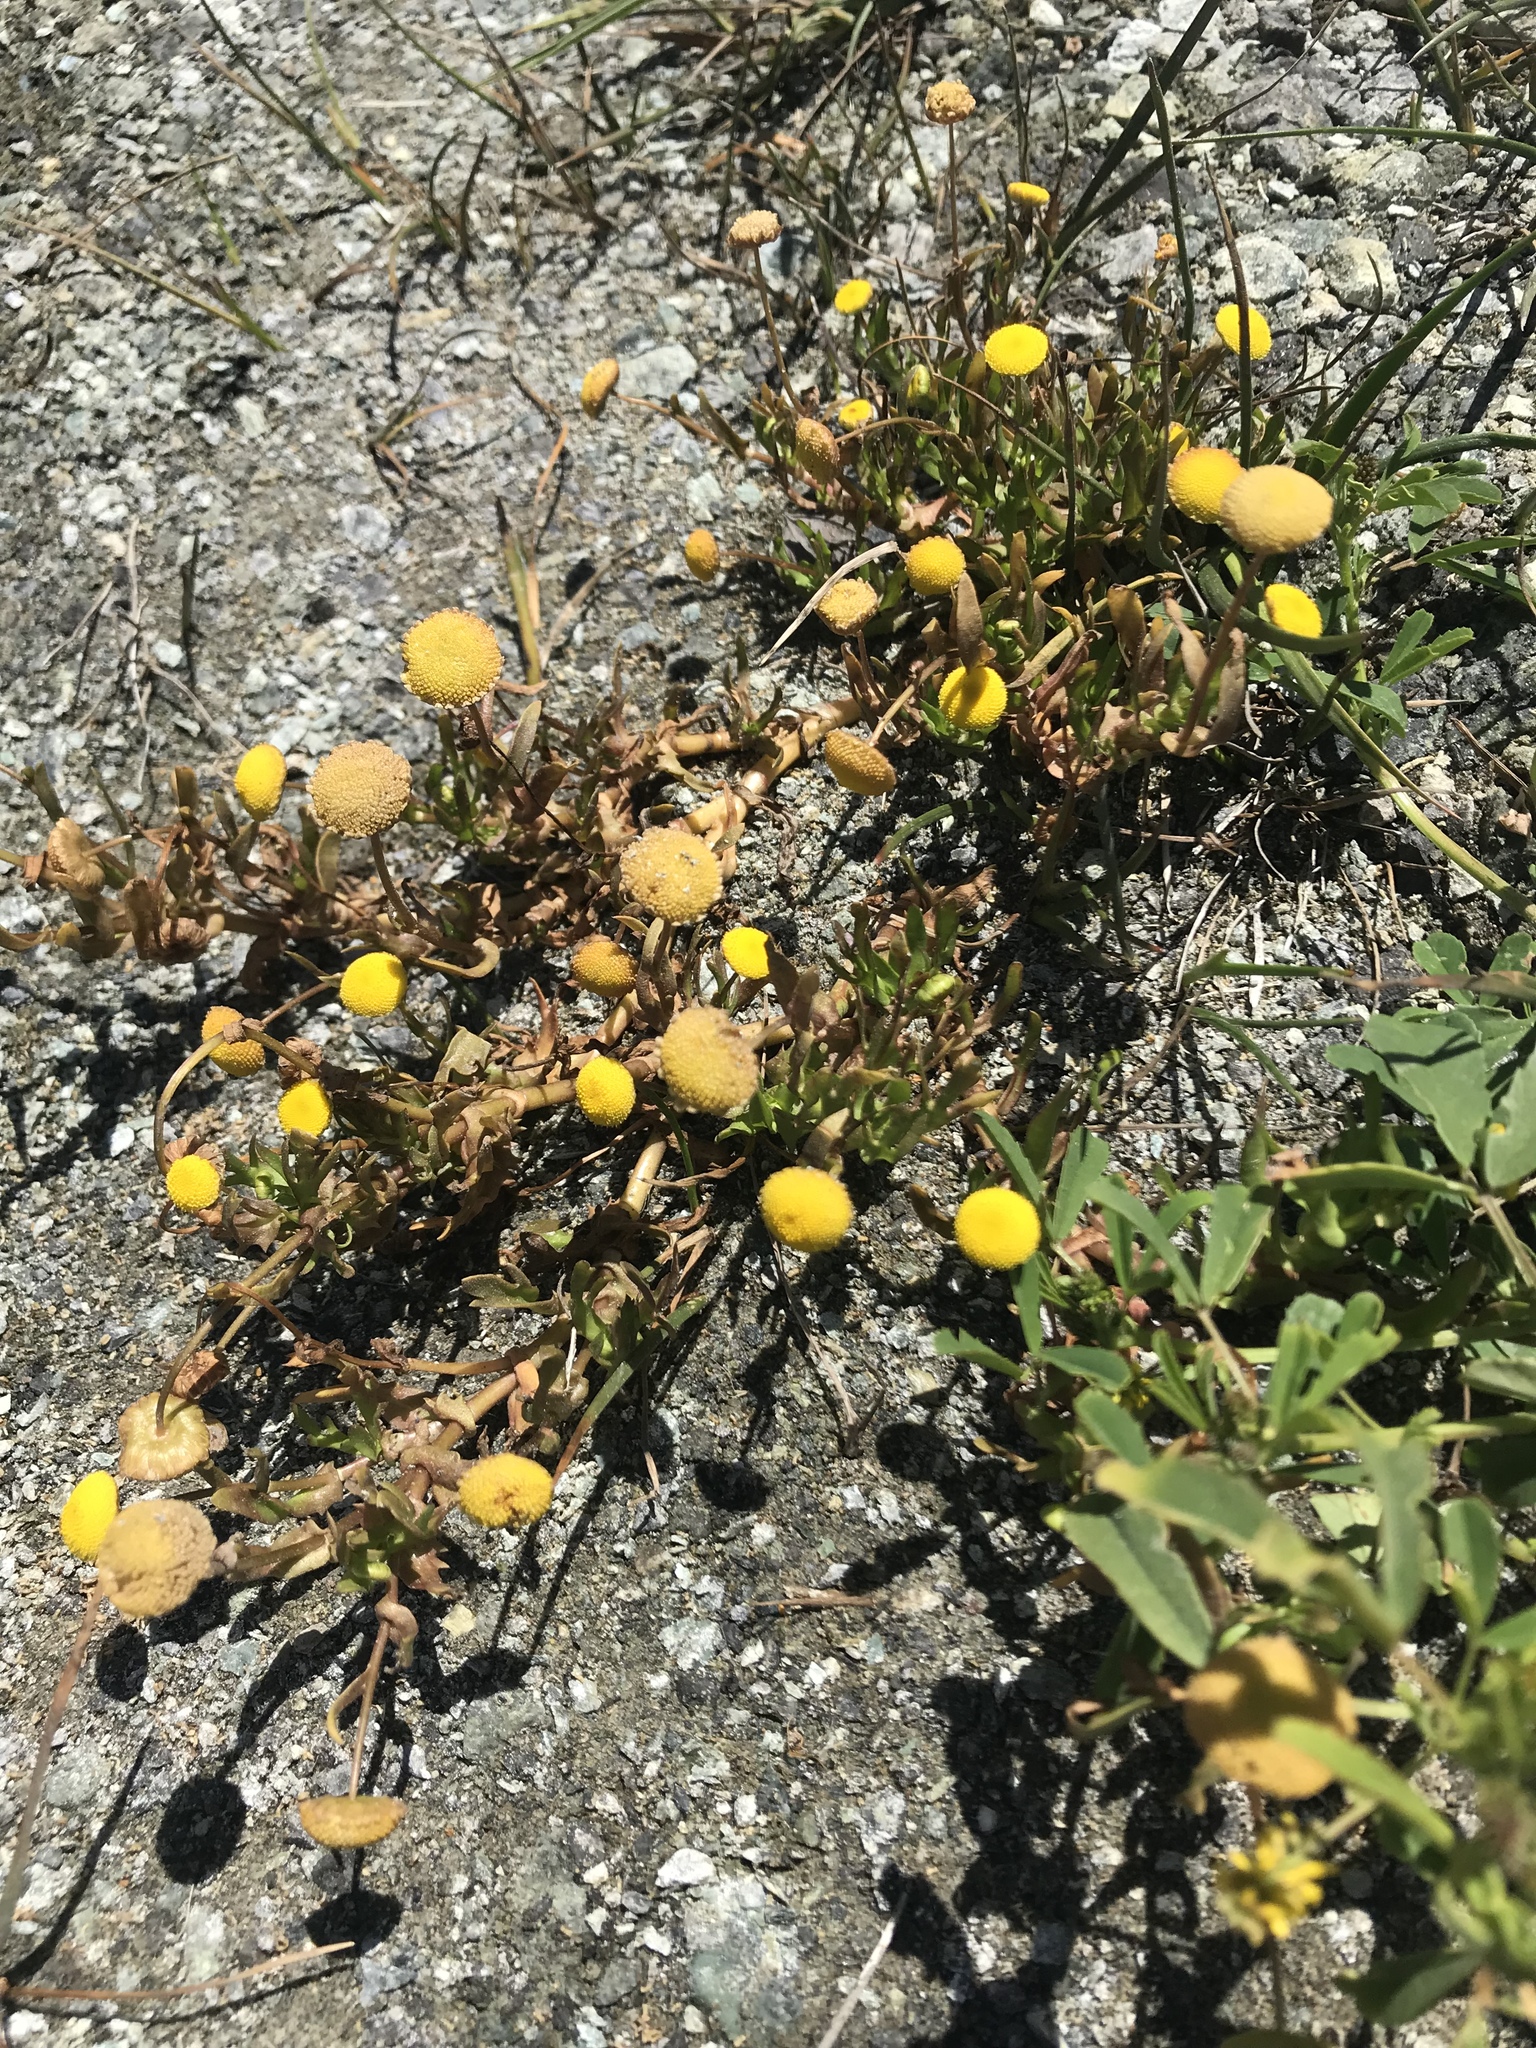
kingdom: Plantae
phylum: Tracheophyta
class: Magnoliopsida
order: Asterales
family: Asteraceae
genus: Cotula
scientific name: Cotula coronopifolia
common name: Buttonweed
